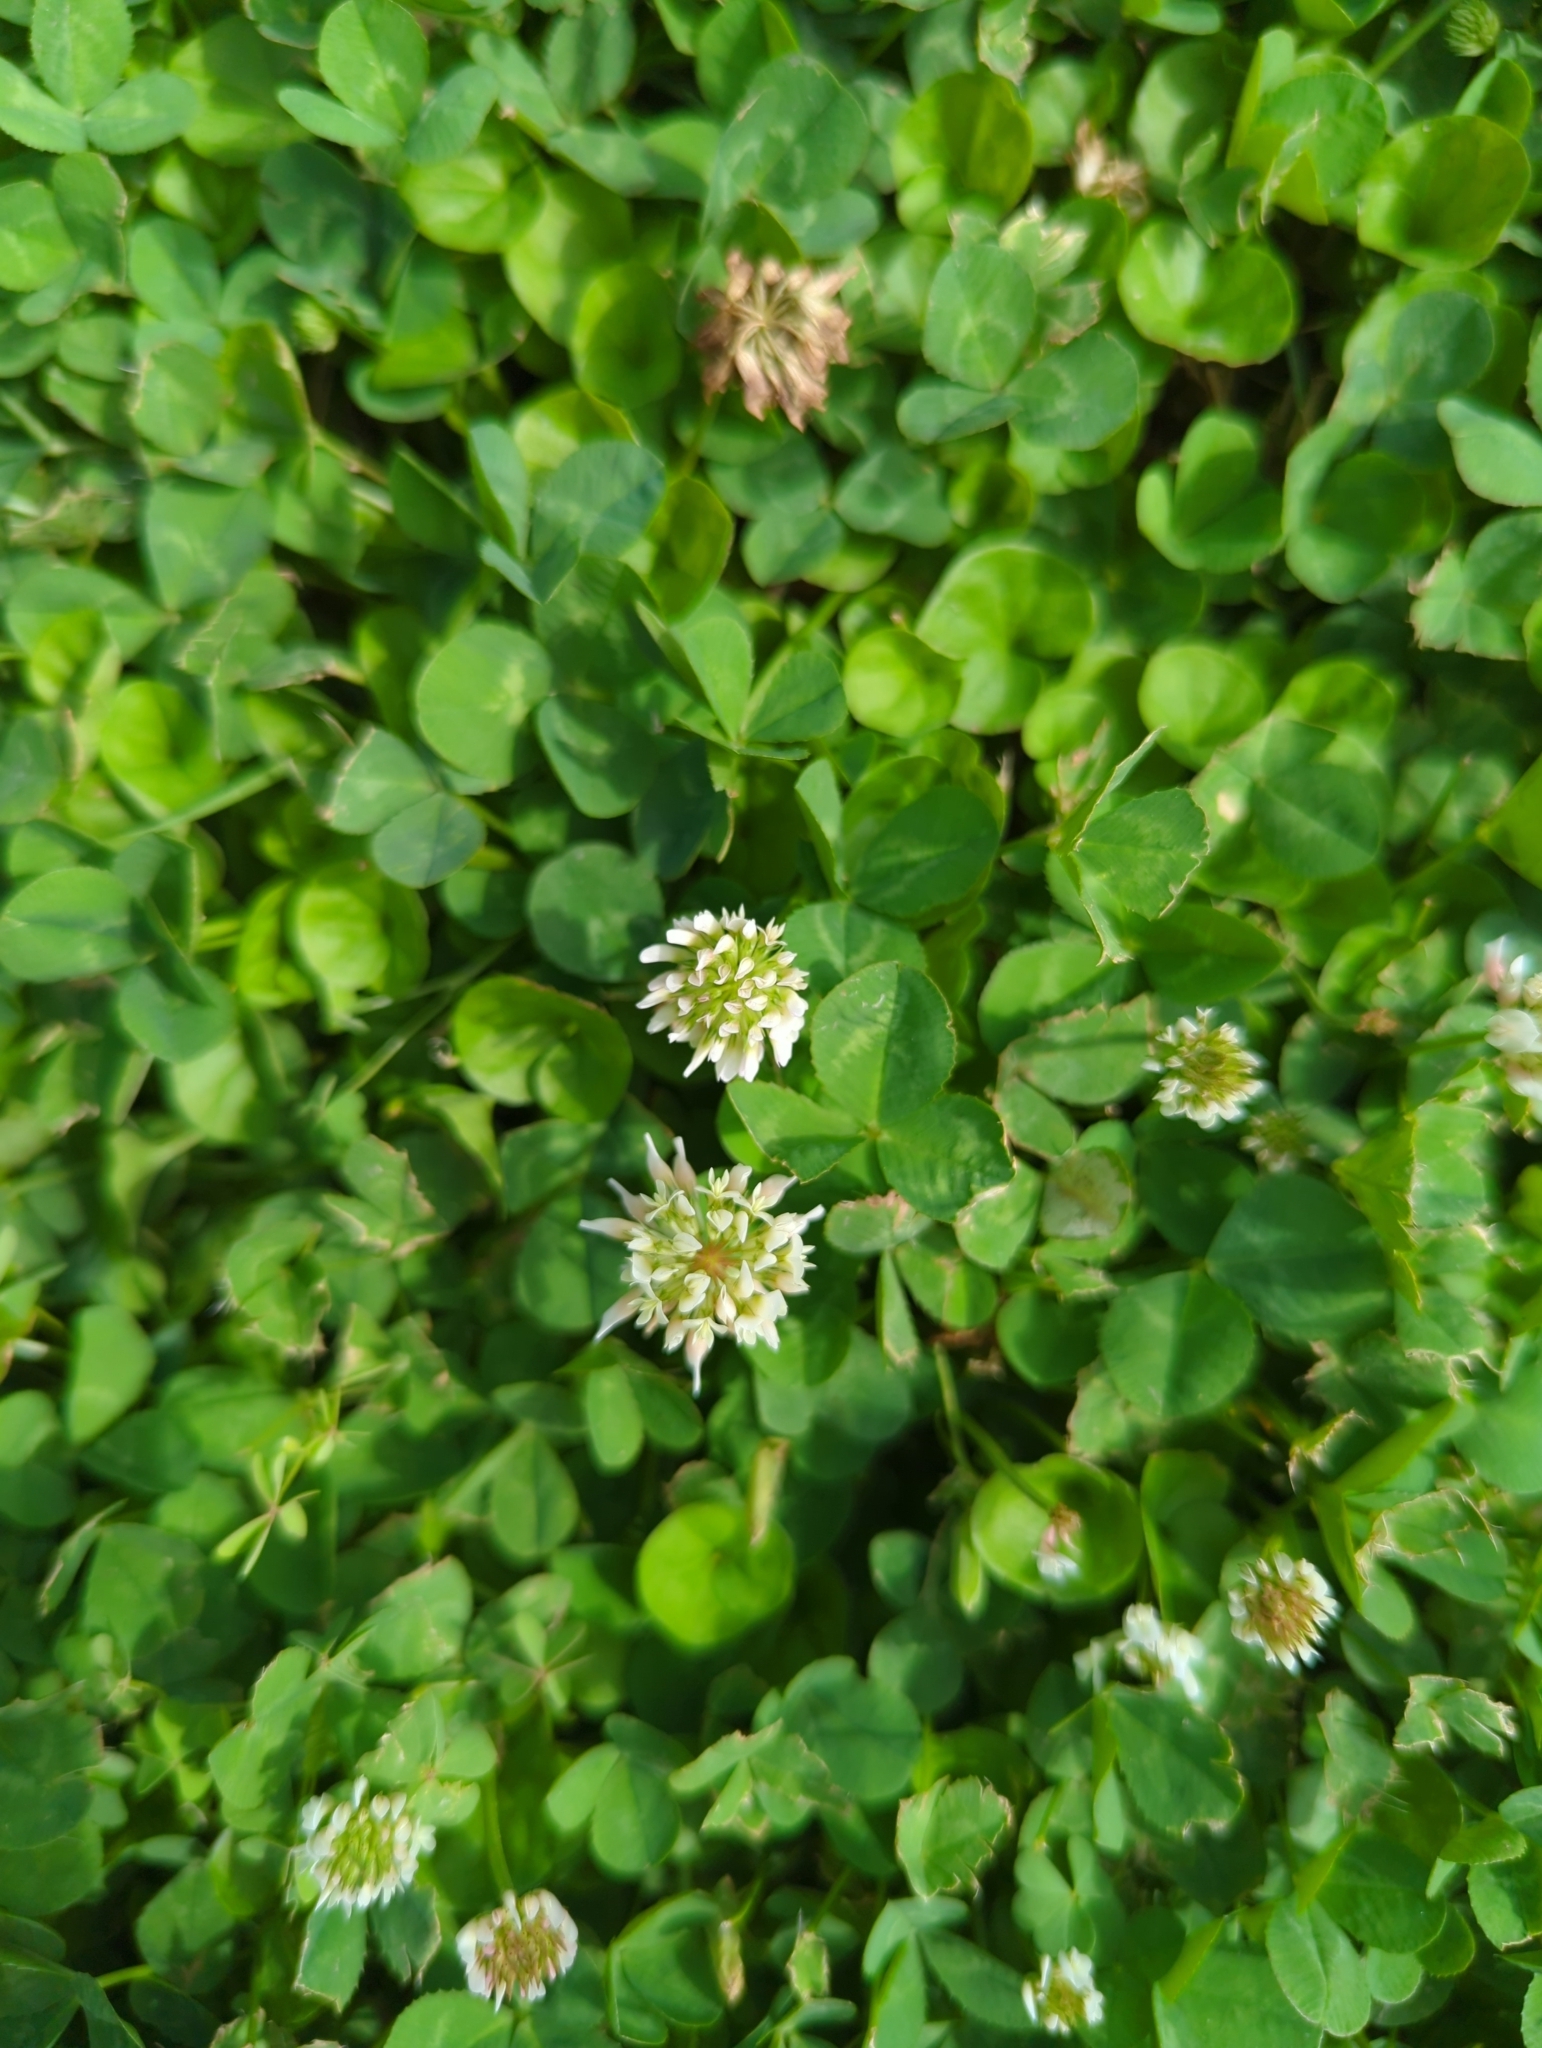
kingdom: Plantae
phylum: Tracheophyta
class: Magnoliopsida
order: Fabales
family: Fabaceae
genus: Trifolium
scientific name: Trifolium repens
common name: White clover
